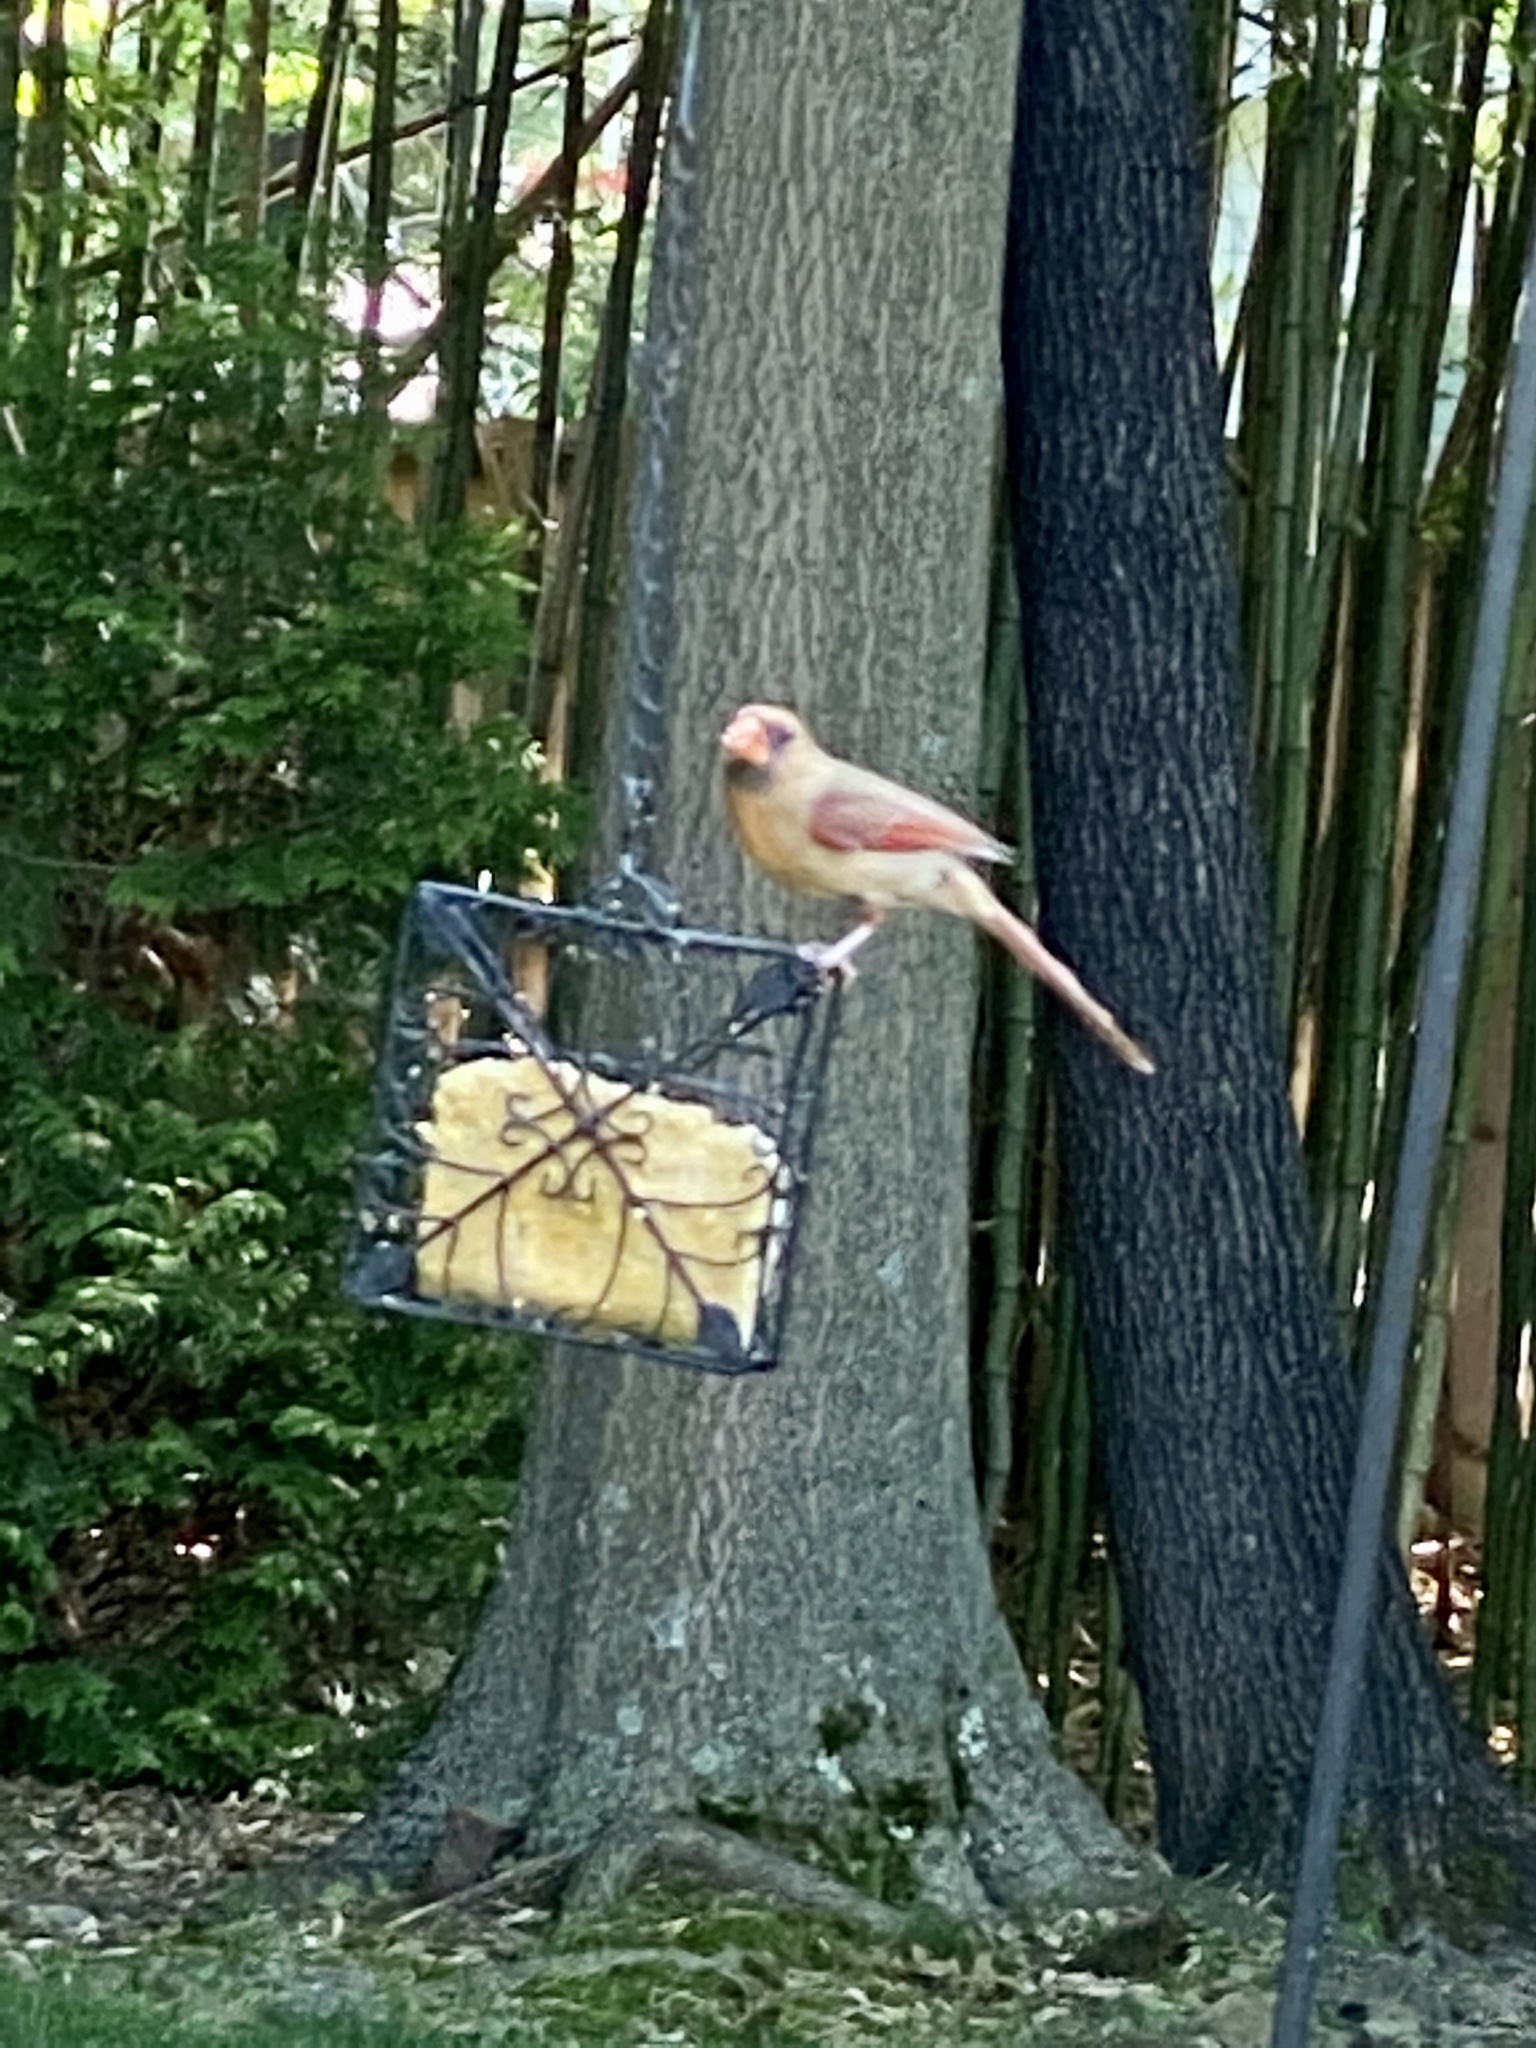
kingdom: Animalia
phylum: Chordata
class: Aves
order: Passeriformes
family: Cardinalidae
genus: Cardinalis
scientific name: Cardinalis cardinalis
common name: Northern cardinal
